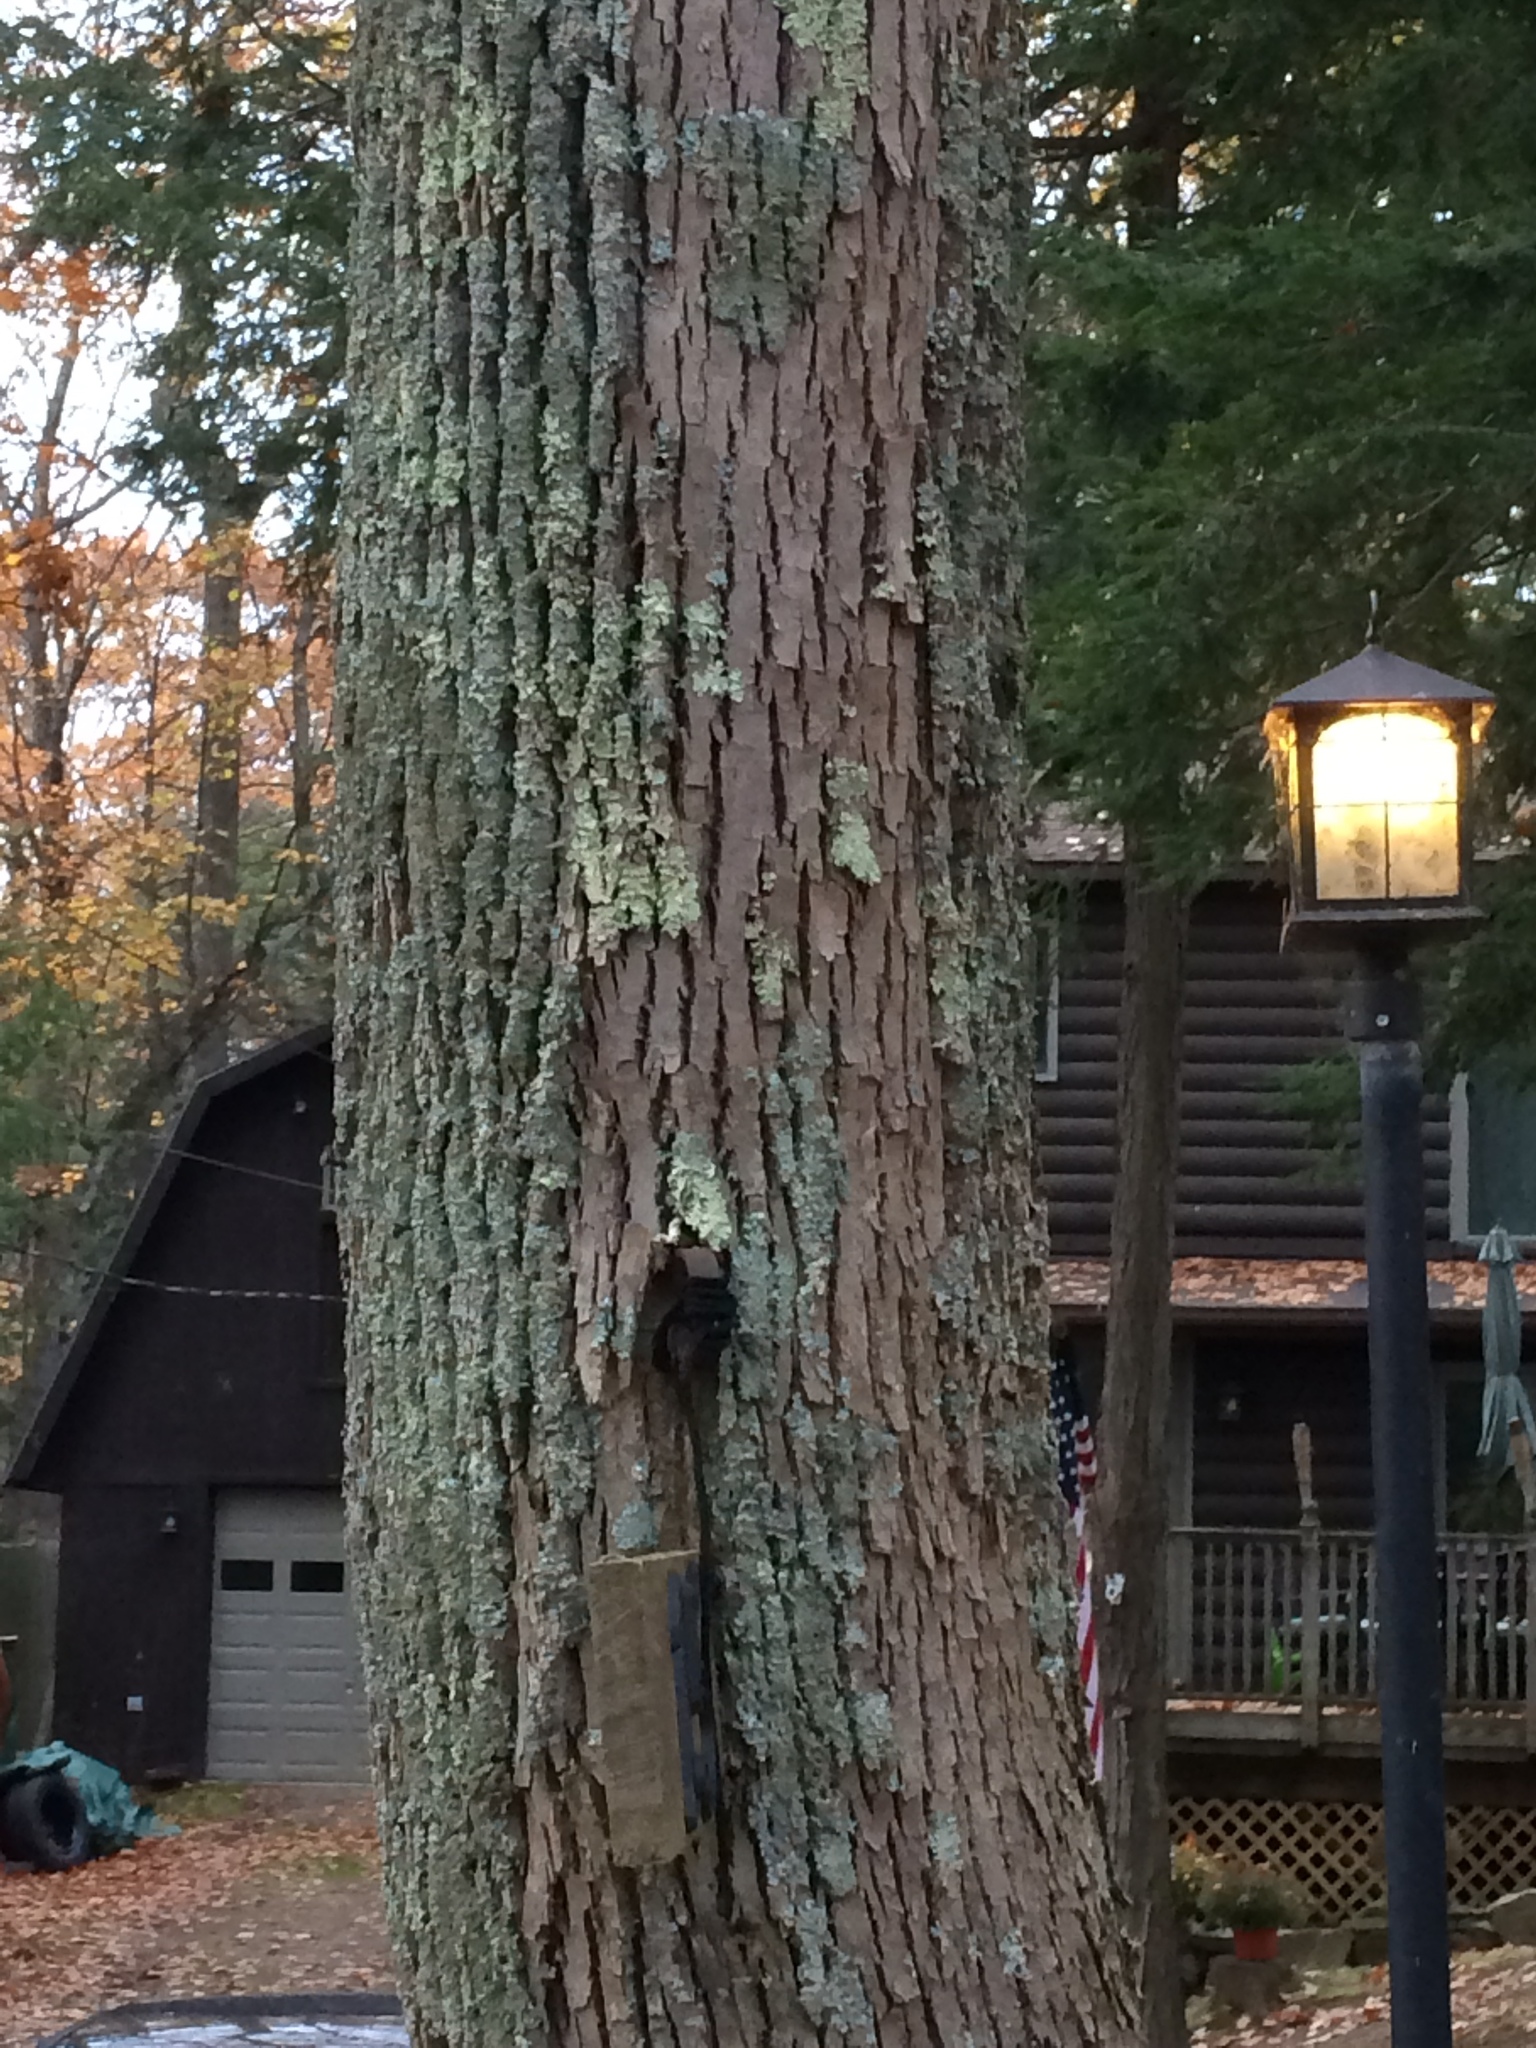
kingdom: Plantae
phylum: Tracheophyta
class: Magnoliopsida
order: Lamiales
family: Oleaceae
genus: Fraxinus
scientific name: Fraxinus americana
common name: White ash
